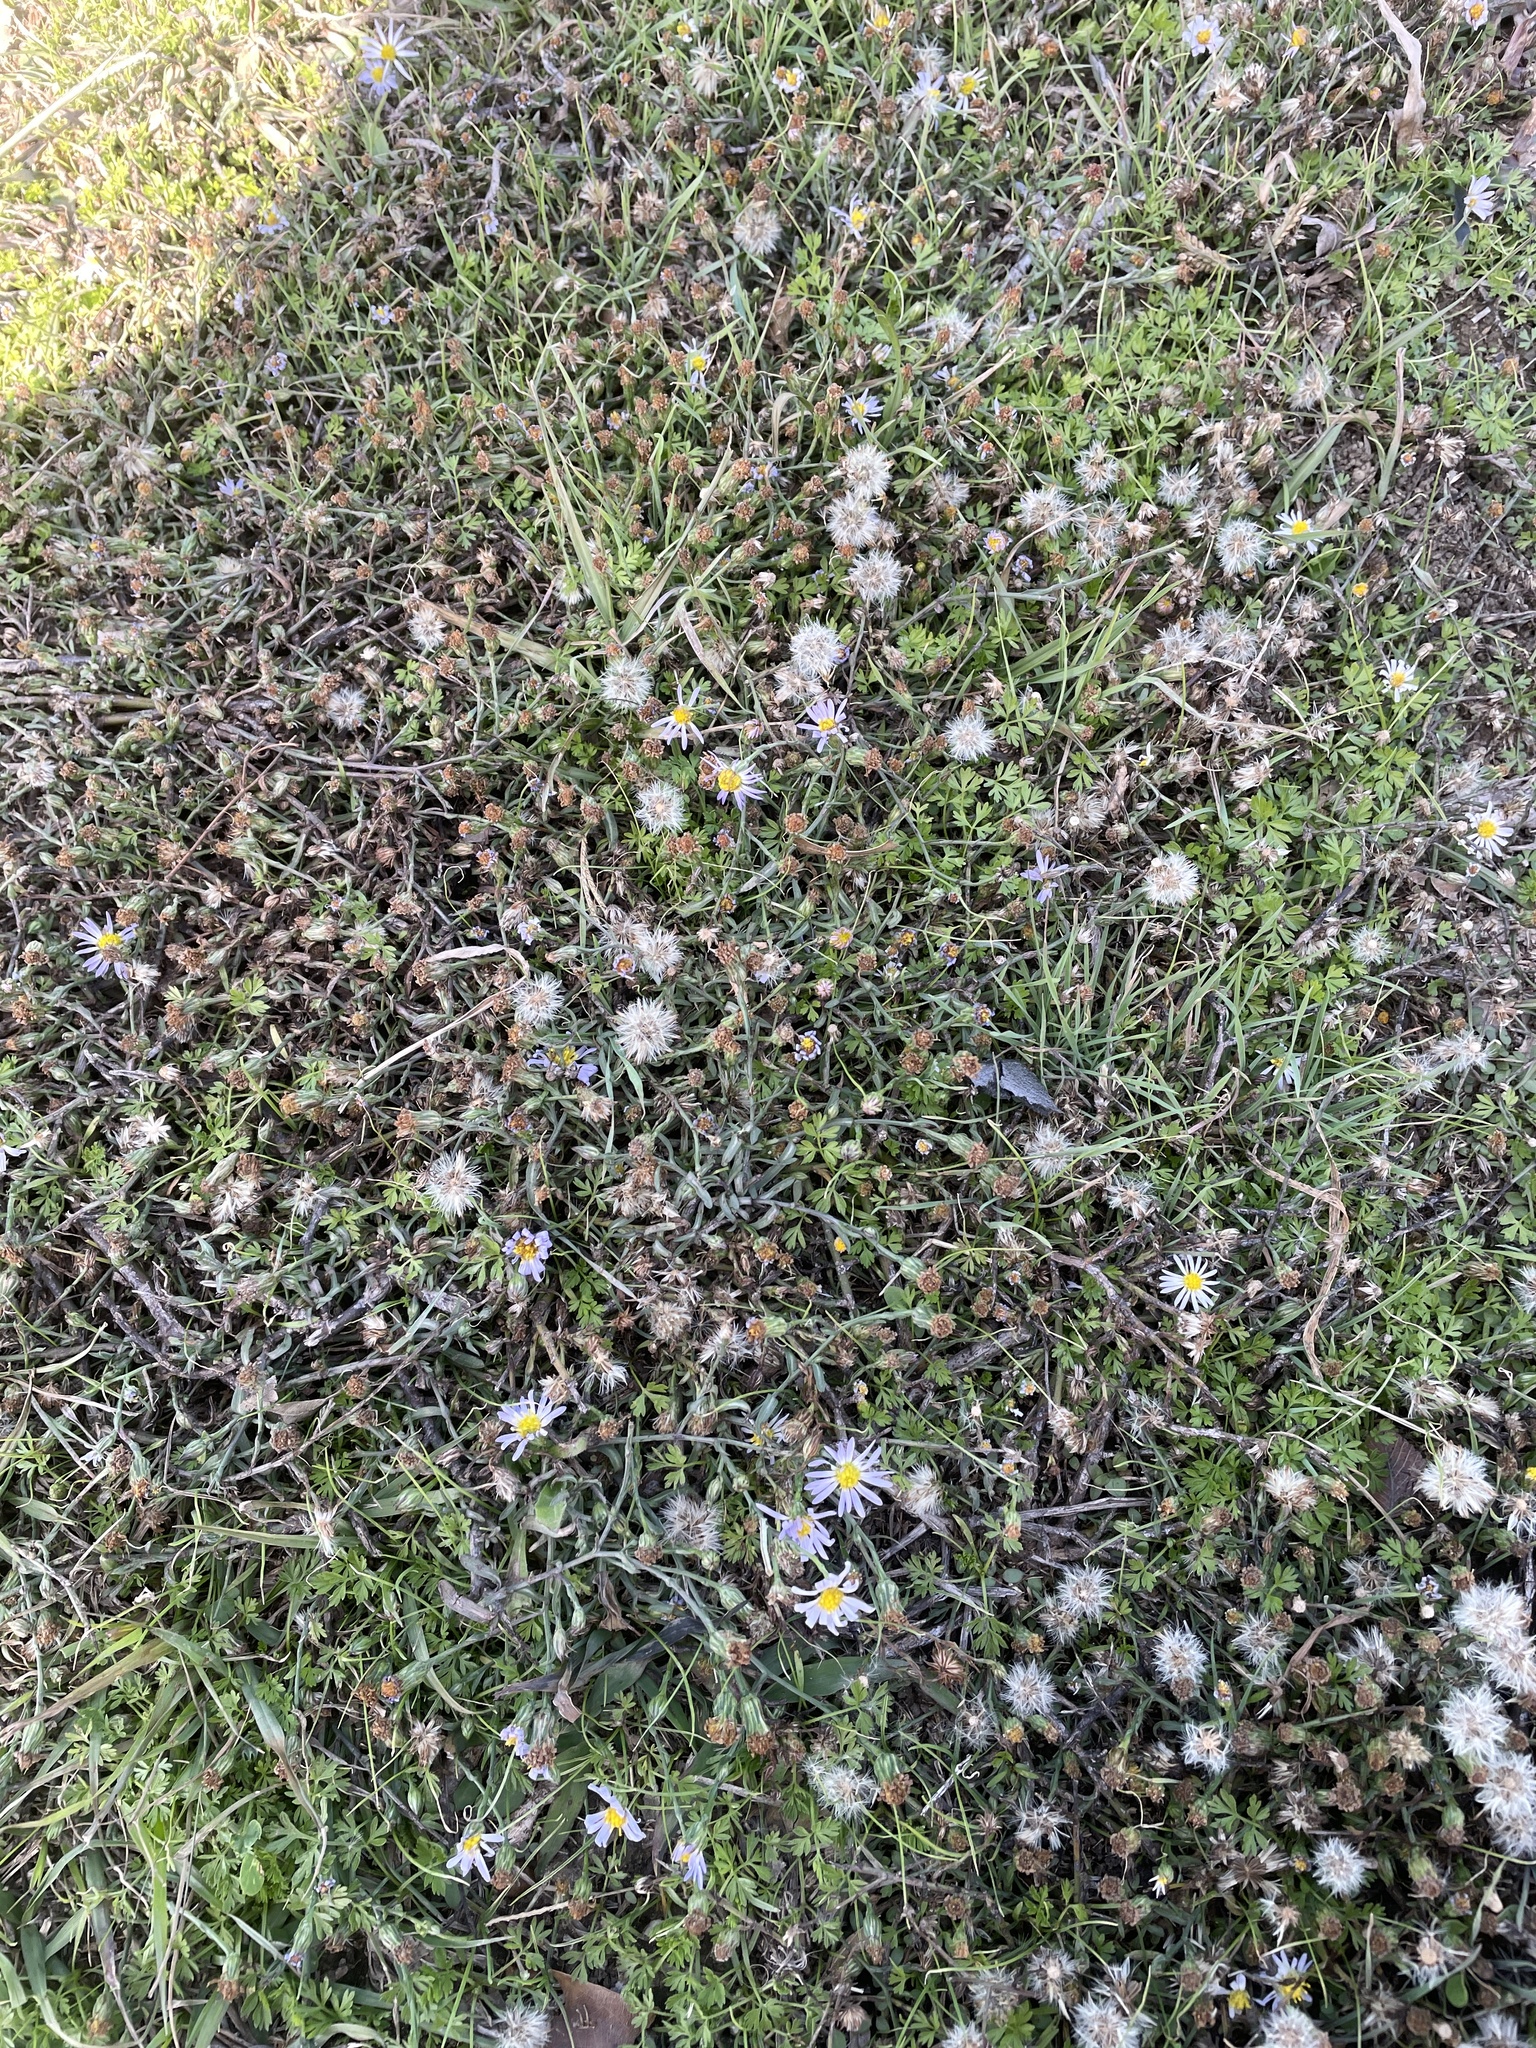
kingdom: Plantae
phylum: Tracheophyta
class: Magnoliopsida
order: Asterales
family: Asteraceae
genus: Symphyotrichum
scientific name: Symphyotrichum divaricatum
